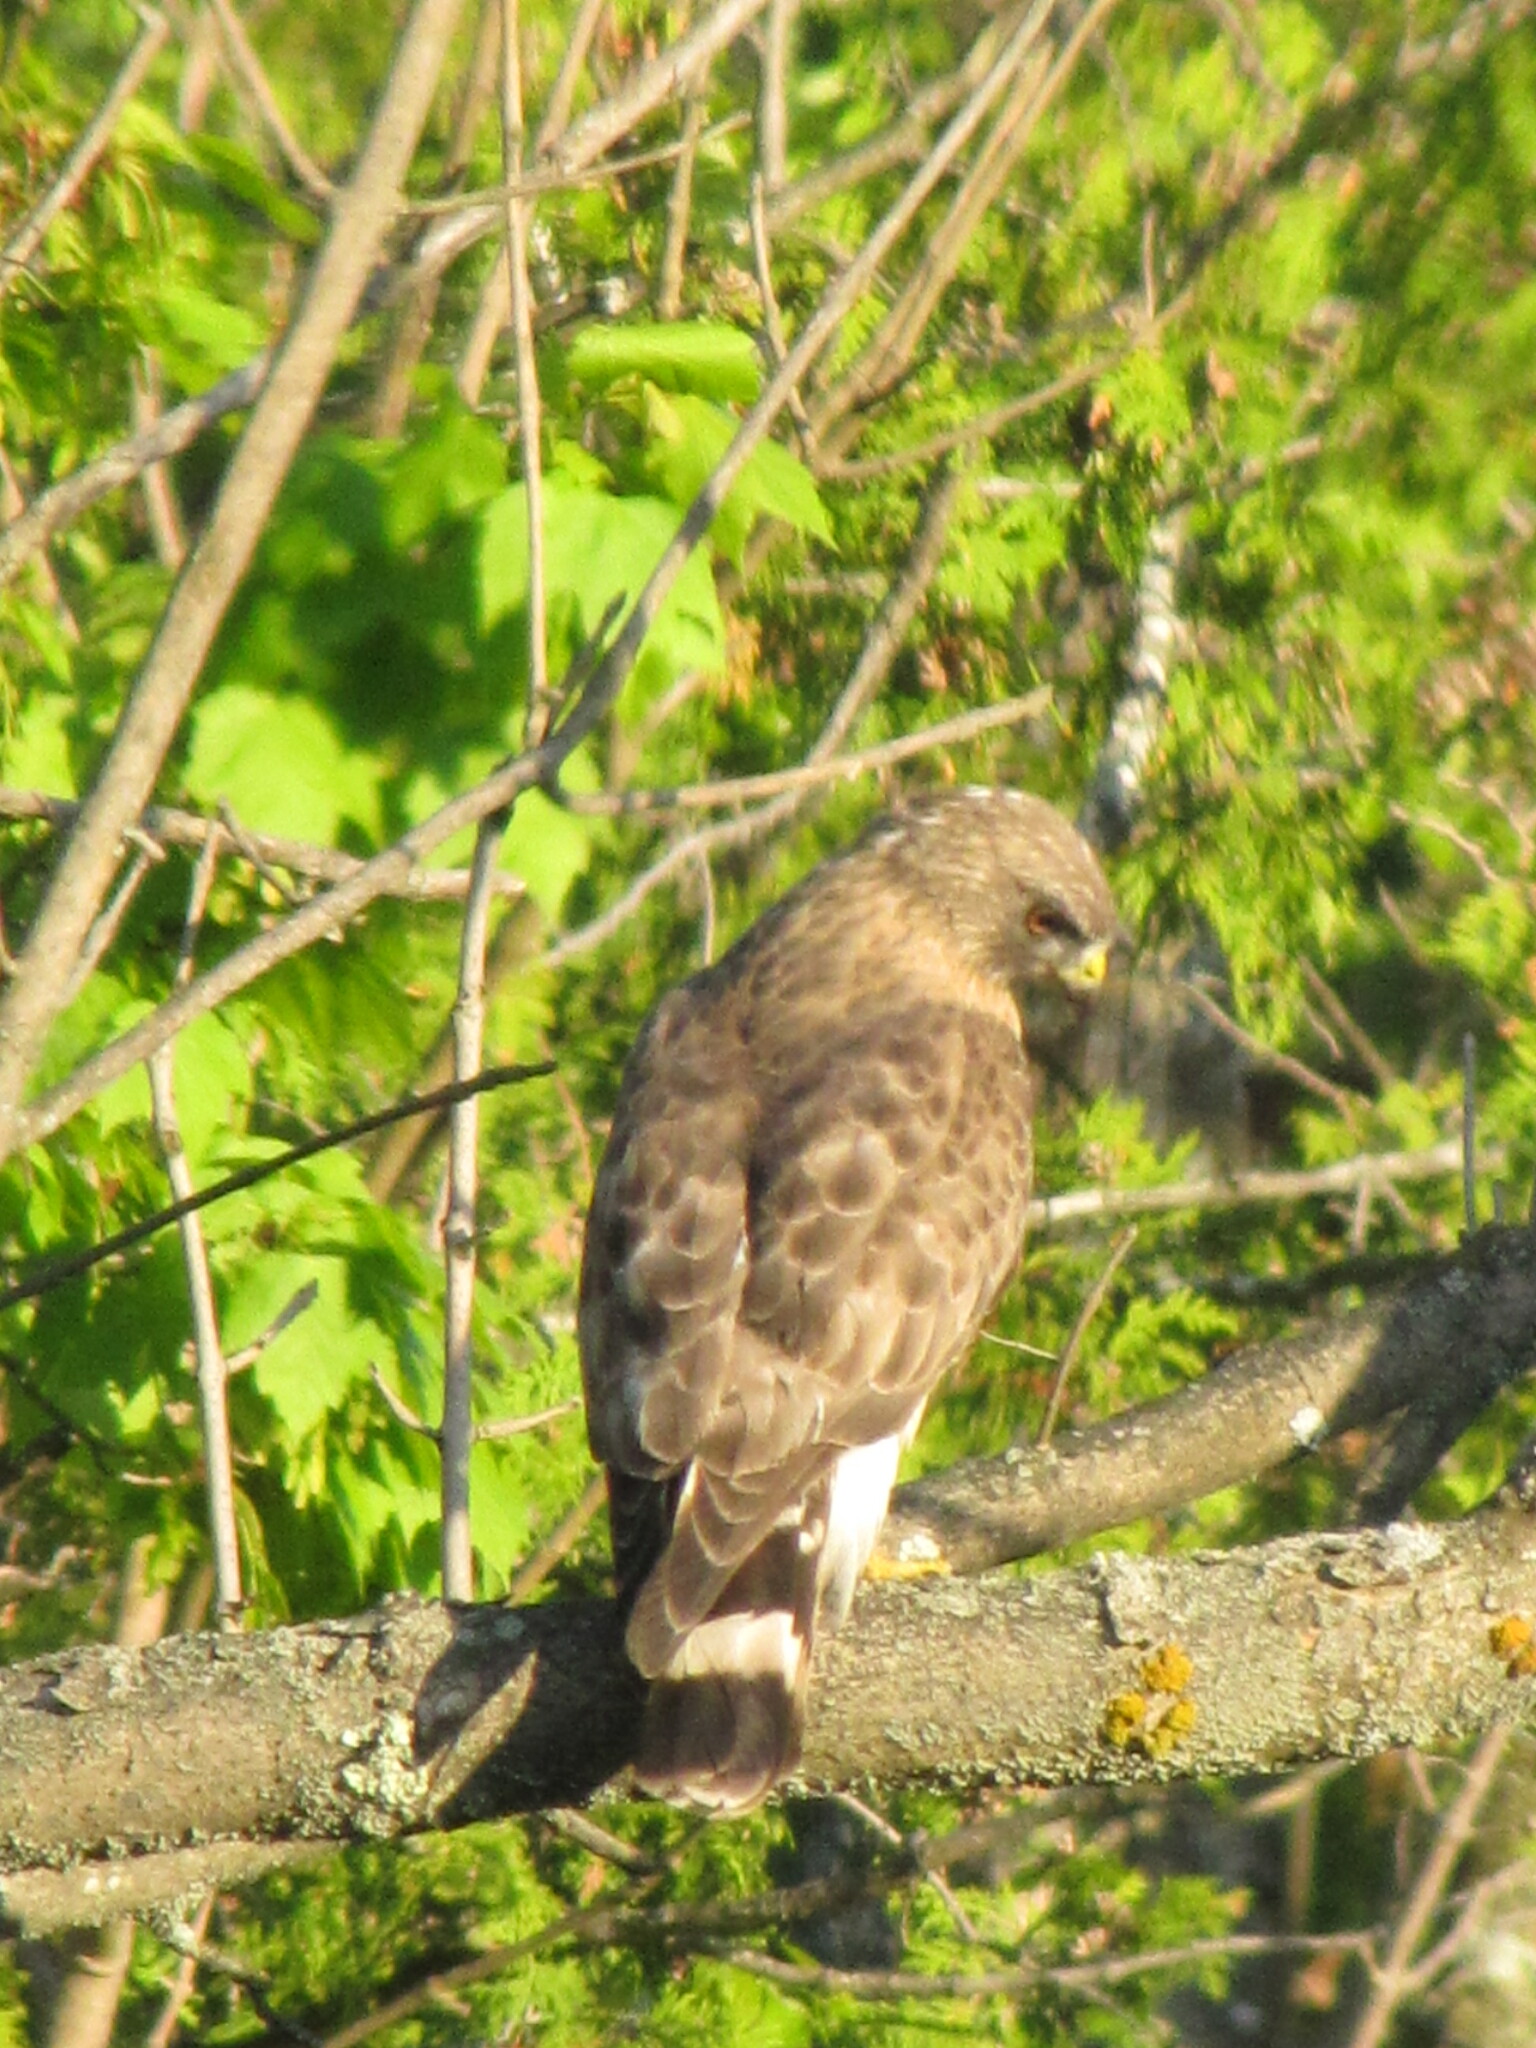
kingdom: Animalia
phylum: Chordata
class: Aves
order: Accipitriformes
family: Accipitridae
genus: Buteo
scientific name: Buteo platypterus
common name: Broad-winged hawk
